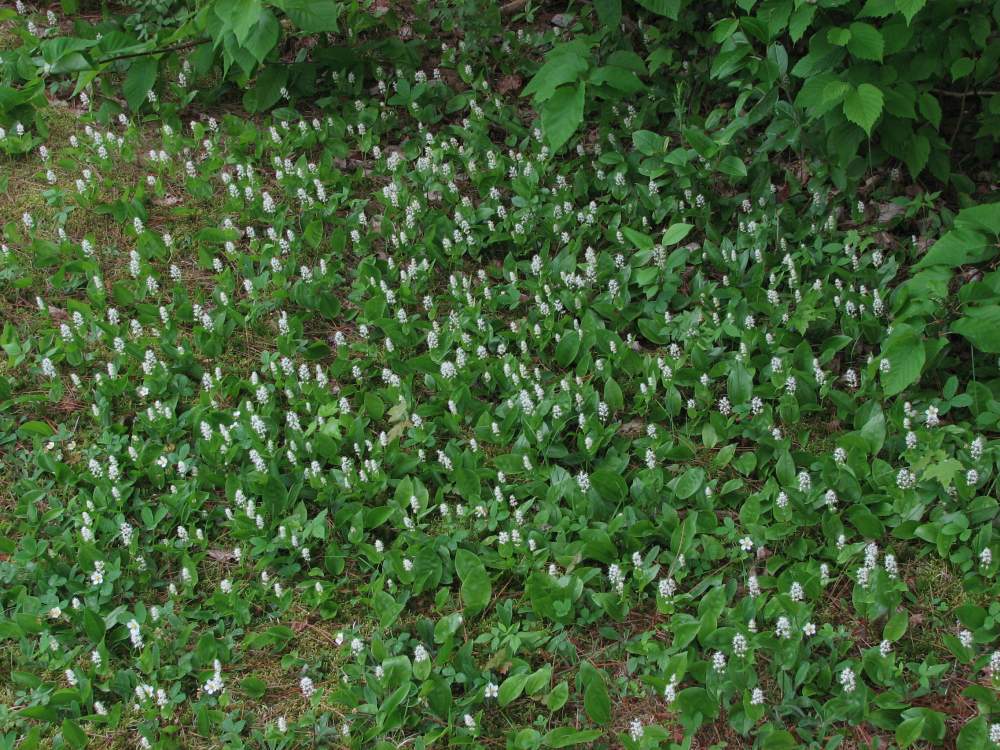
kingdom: Plantae
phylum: Tracheophyta
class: Liliopsida
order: Asparagales
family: Asparagaceae
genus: Maianthemum
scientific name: Maianthemum canadense
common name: False lily-of-the-valley
